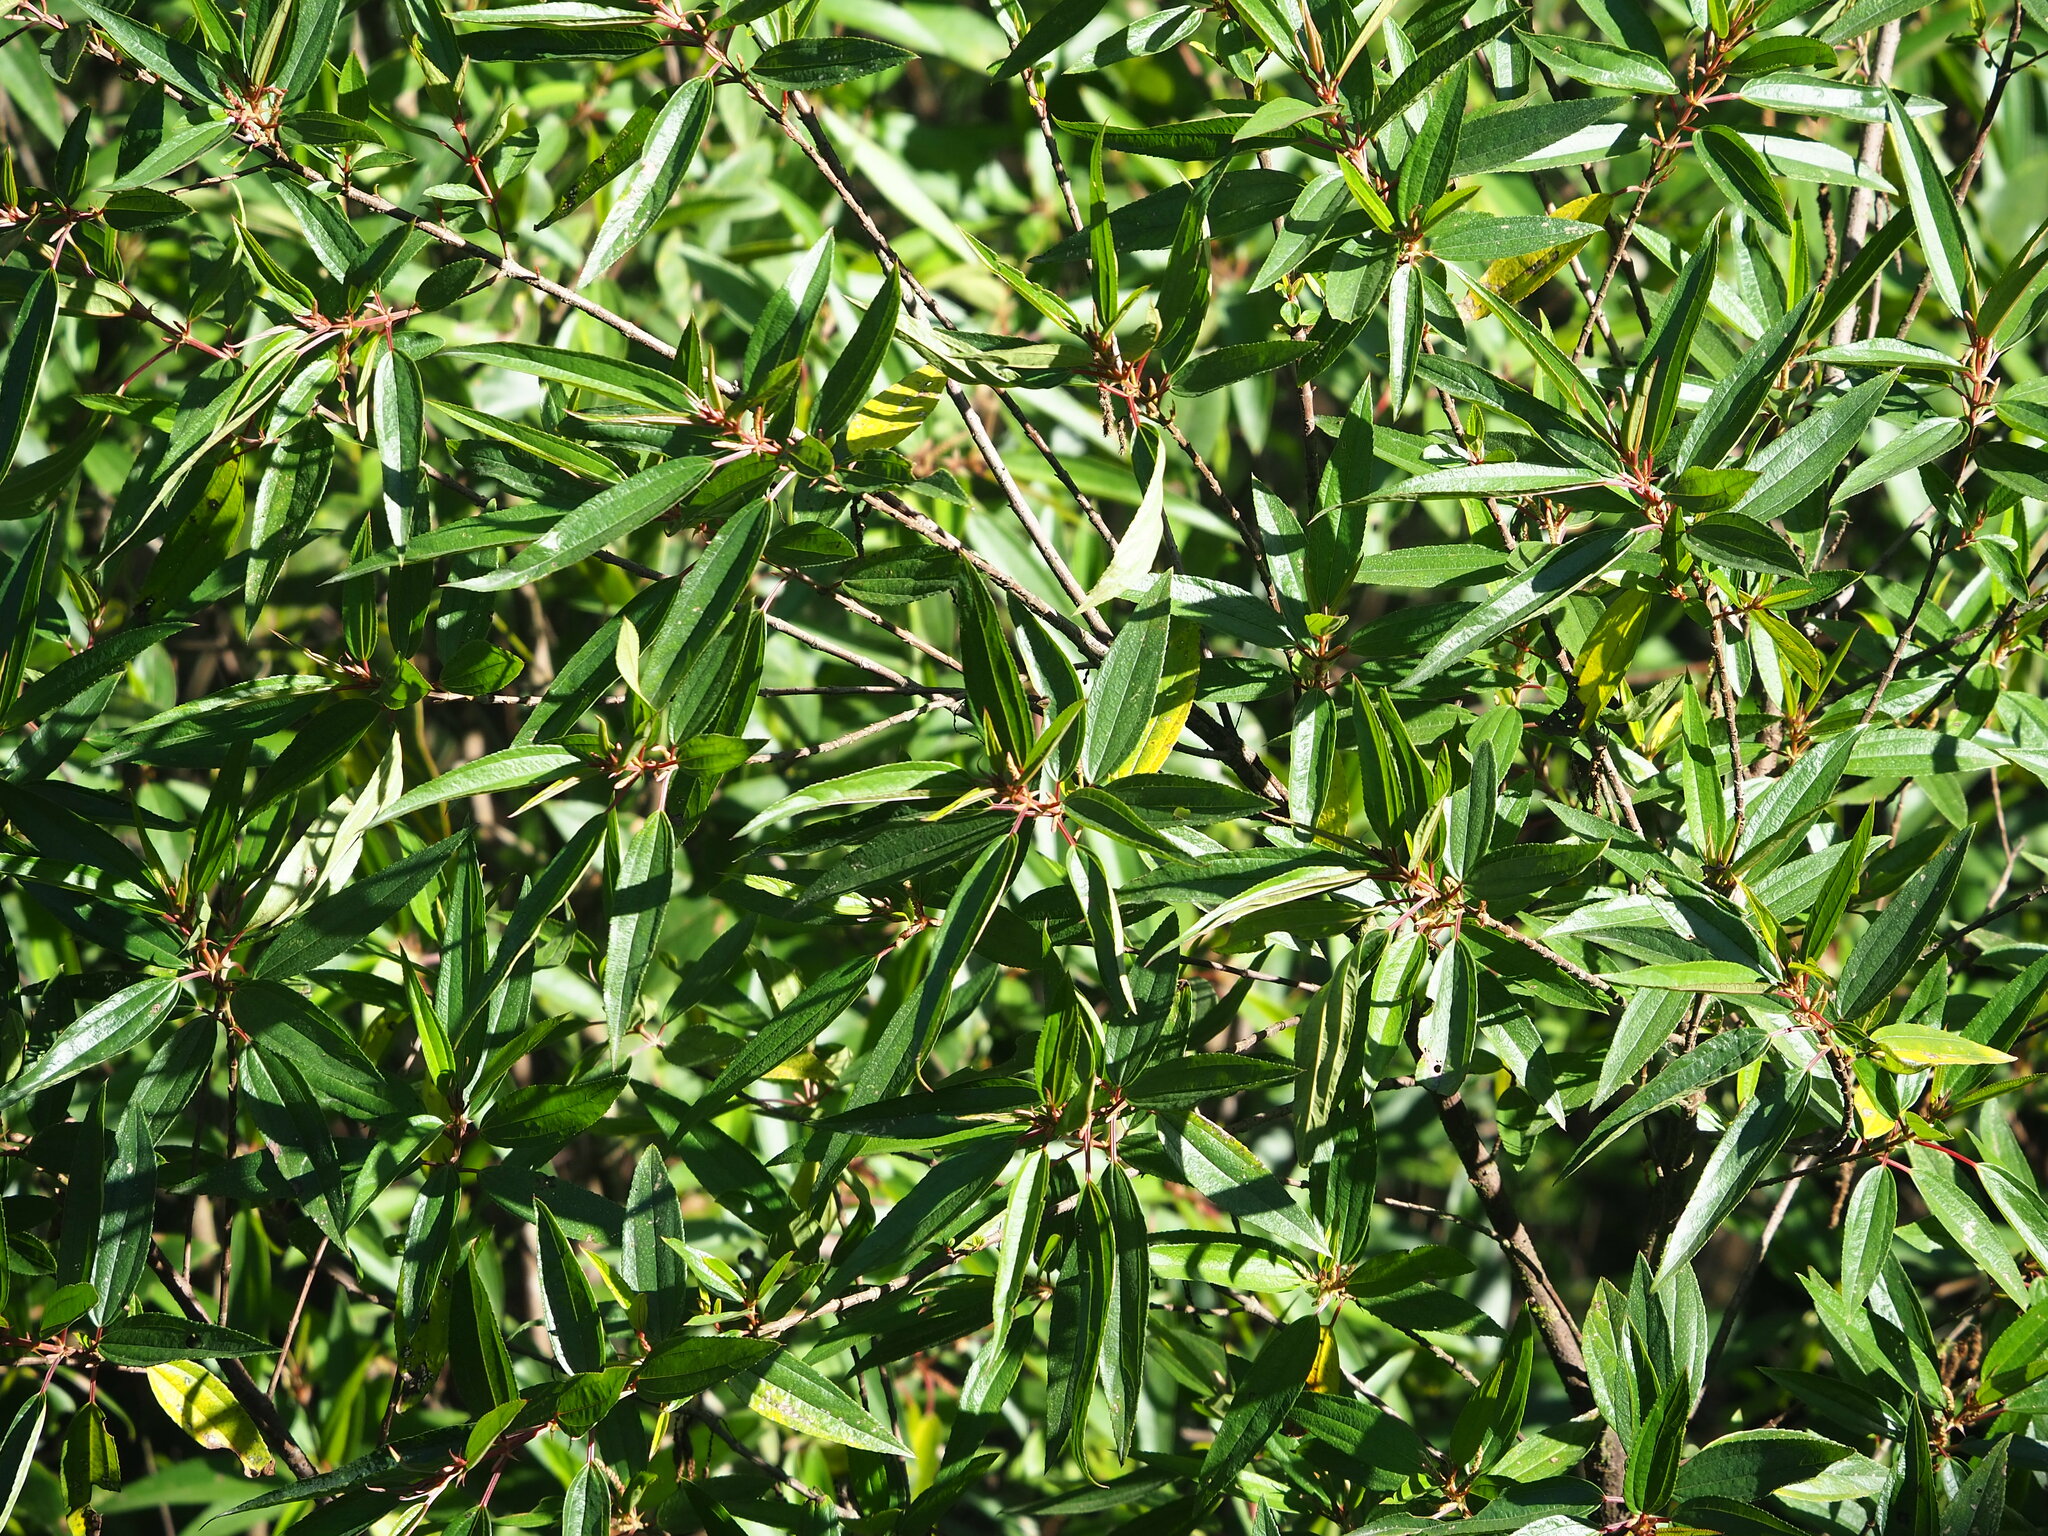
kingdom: Plantae
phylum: Tracheophyta
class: Magnoliopsida
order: Rosales
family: Urticaceae
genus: Boehmeria
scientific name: Boehmeria densiflora
